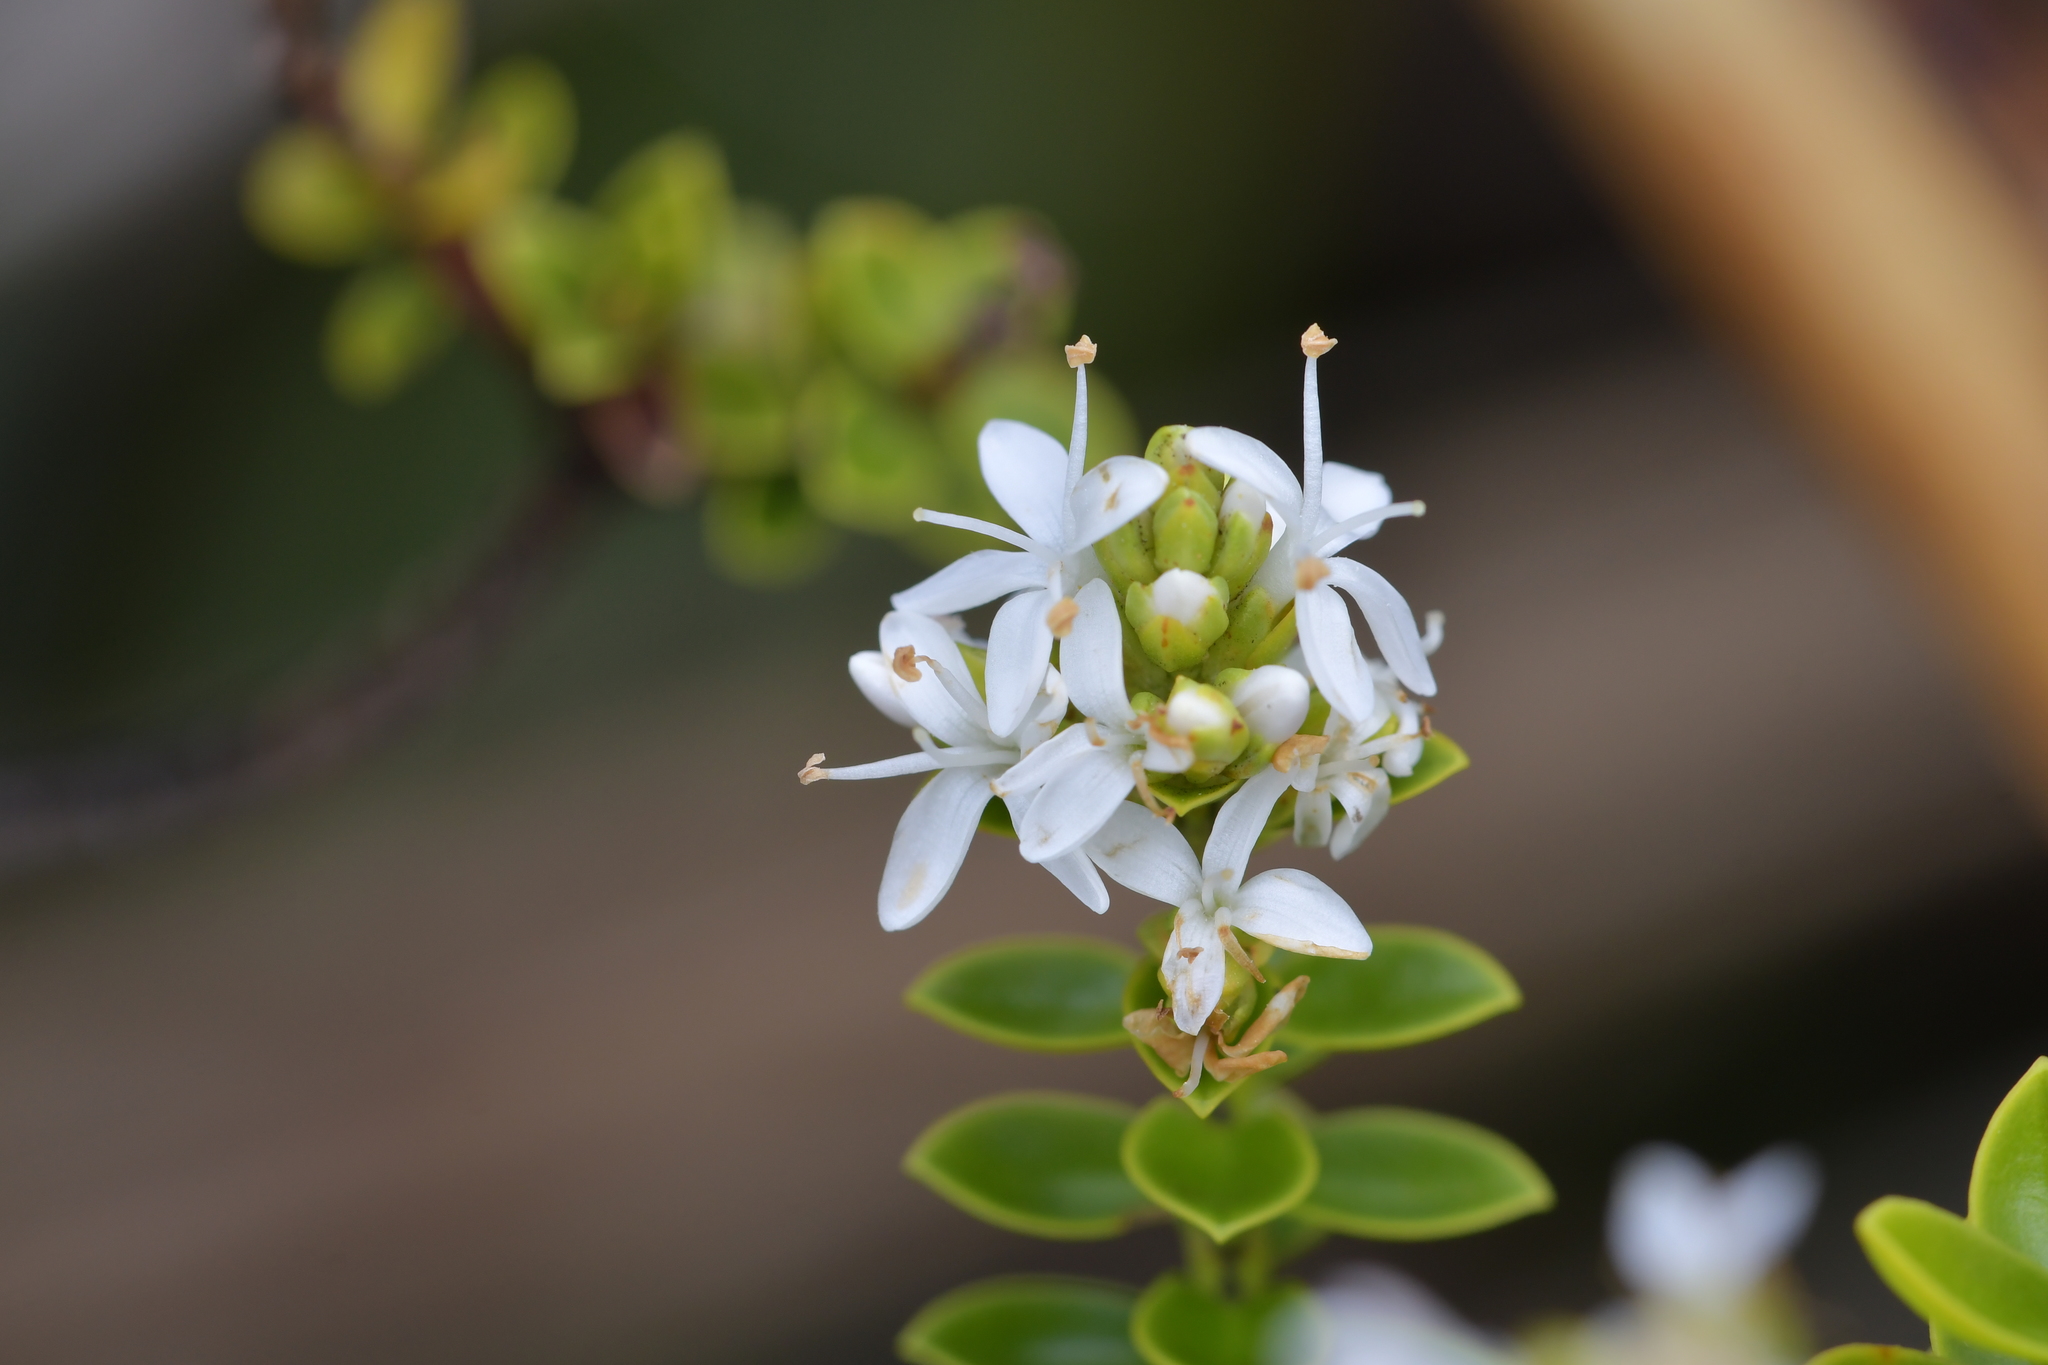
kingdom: Plantae
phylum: Tracheophyta
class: Magnoliopsida
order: Lamiales
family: Plantaginaceae
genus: Veronica
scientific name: Veronica odora
